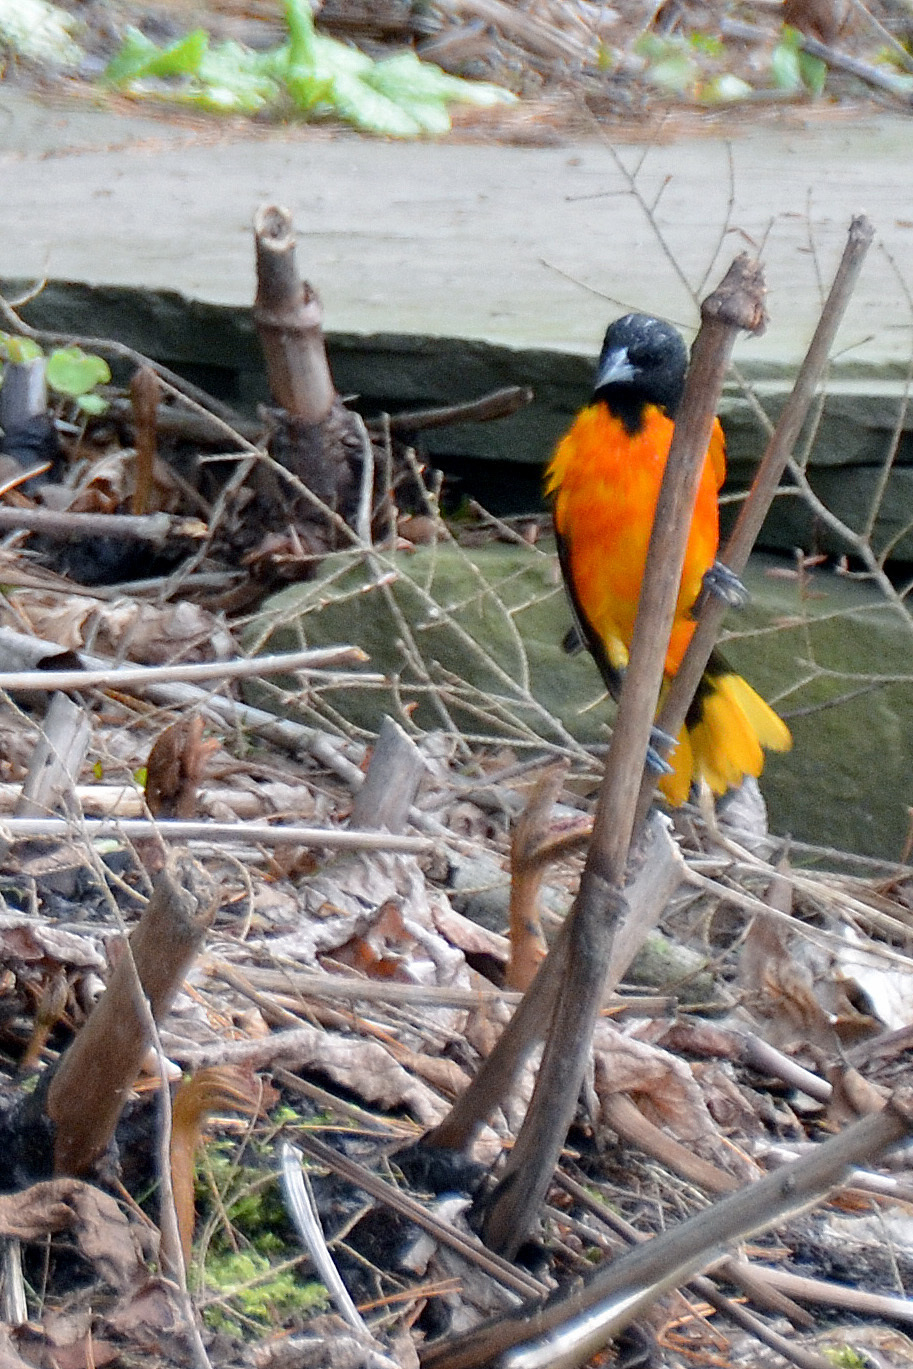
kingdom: Animalia
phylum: Chordata
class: Aves
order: Passeriformes
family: Icteridae
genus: Icterus
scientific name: Icterus galbula
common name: Baltimore oriole
